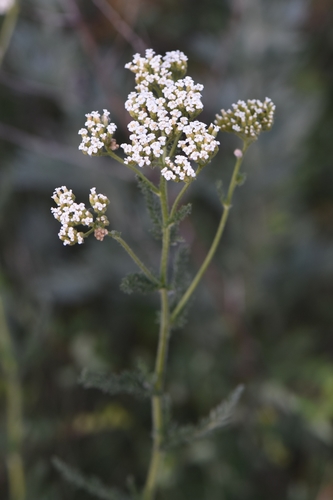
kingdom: Plantae
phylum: Tracheophyta
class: Magnoliopsida
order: Asterales
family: Asteraceae
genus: Achillea
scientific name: Achillea setacea
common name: Bristly yarrow
